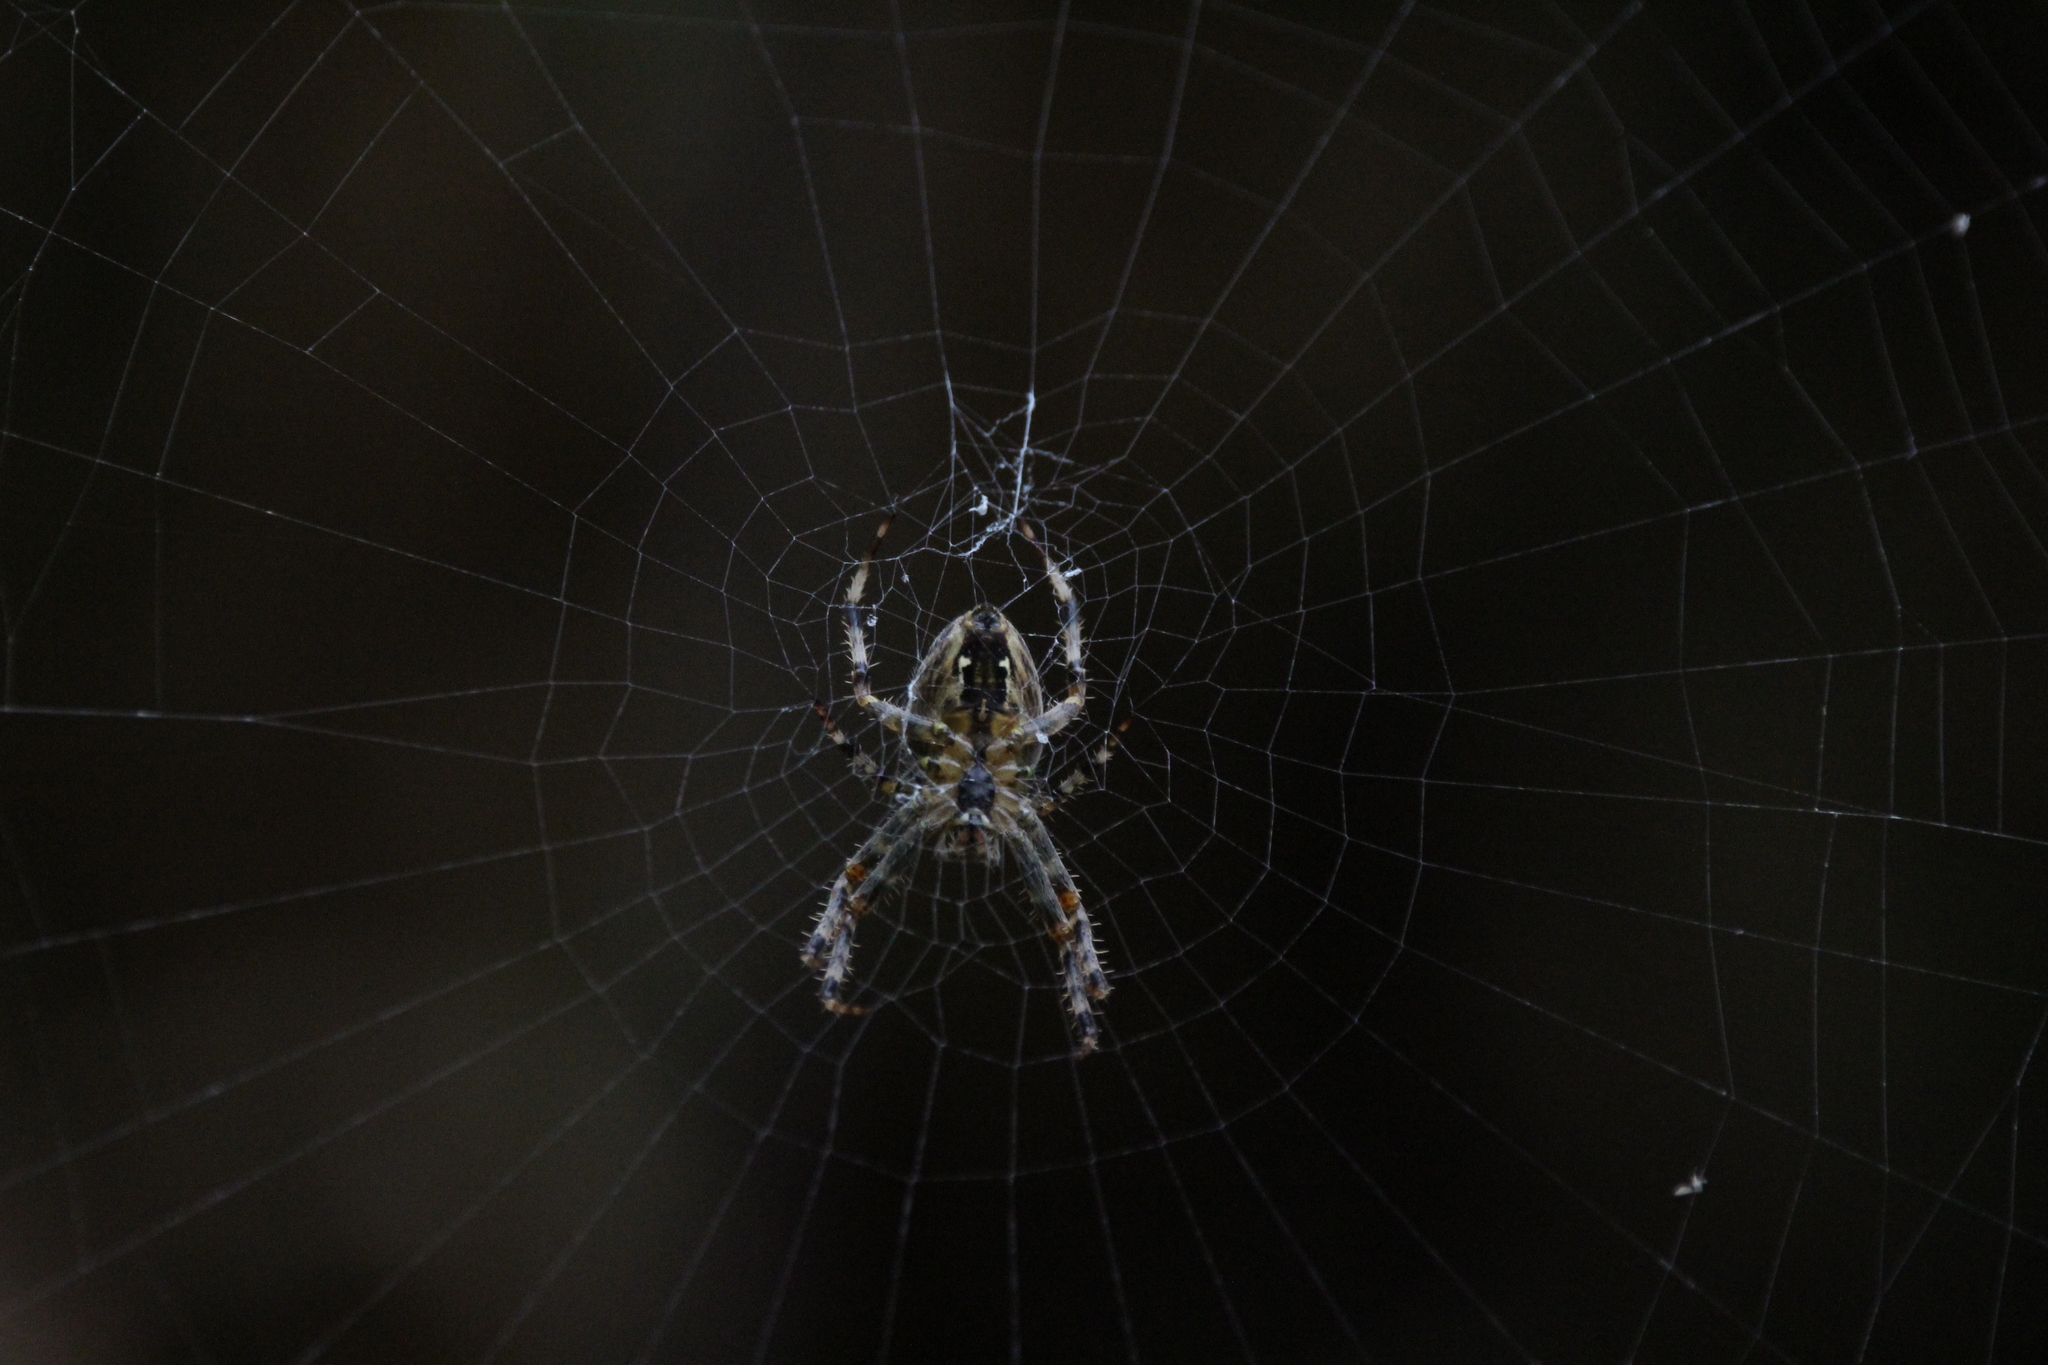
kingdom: Animalia
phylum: Arthropoda
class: Arachnida
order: Araneae
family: Araneidae
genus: Araneus
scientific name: Araneus diadematus
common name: Cross orbweaver
